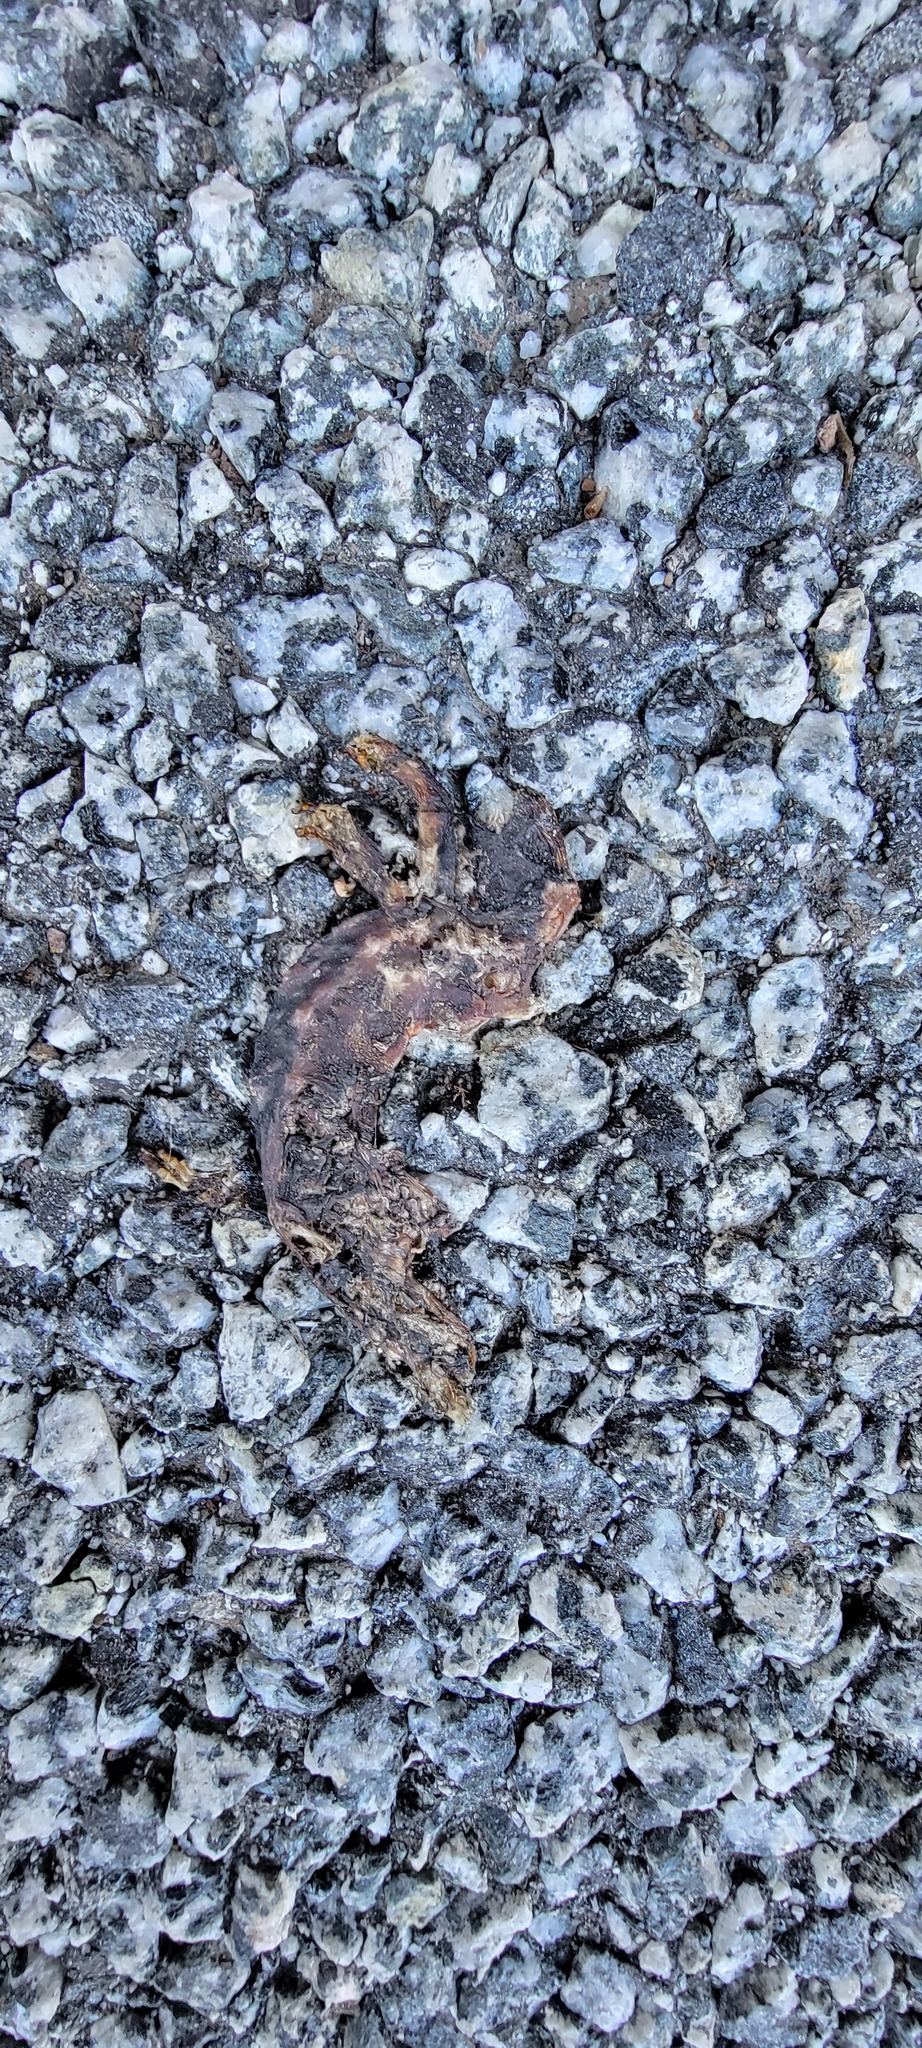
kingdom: Animalia
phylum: Chordata
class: Amphibia
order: Caudata
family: Salamandridae
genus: Taricha
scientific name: Taricha
